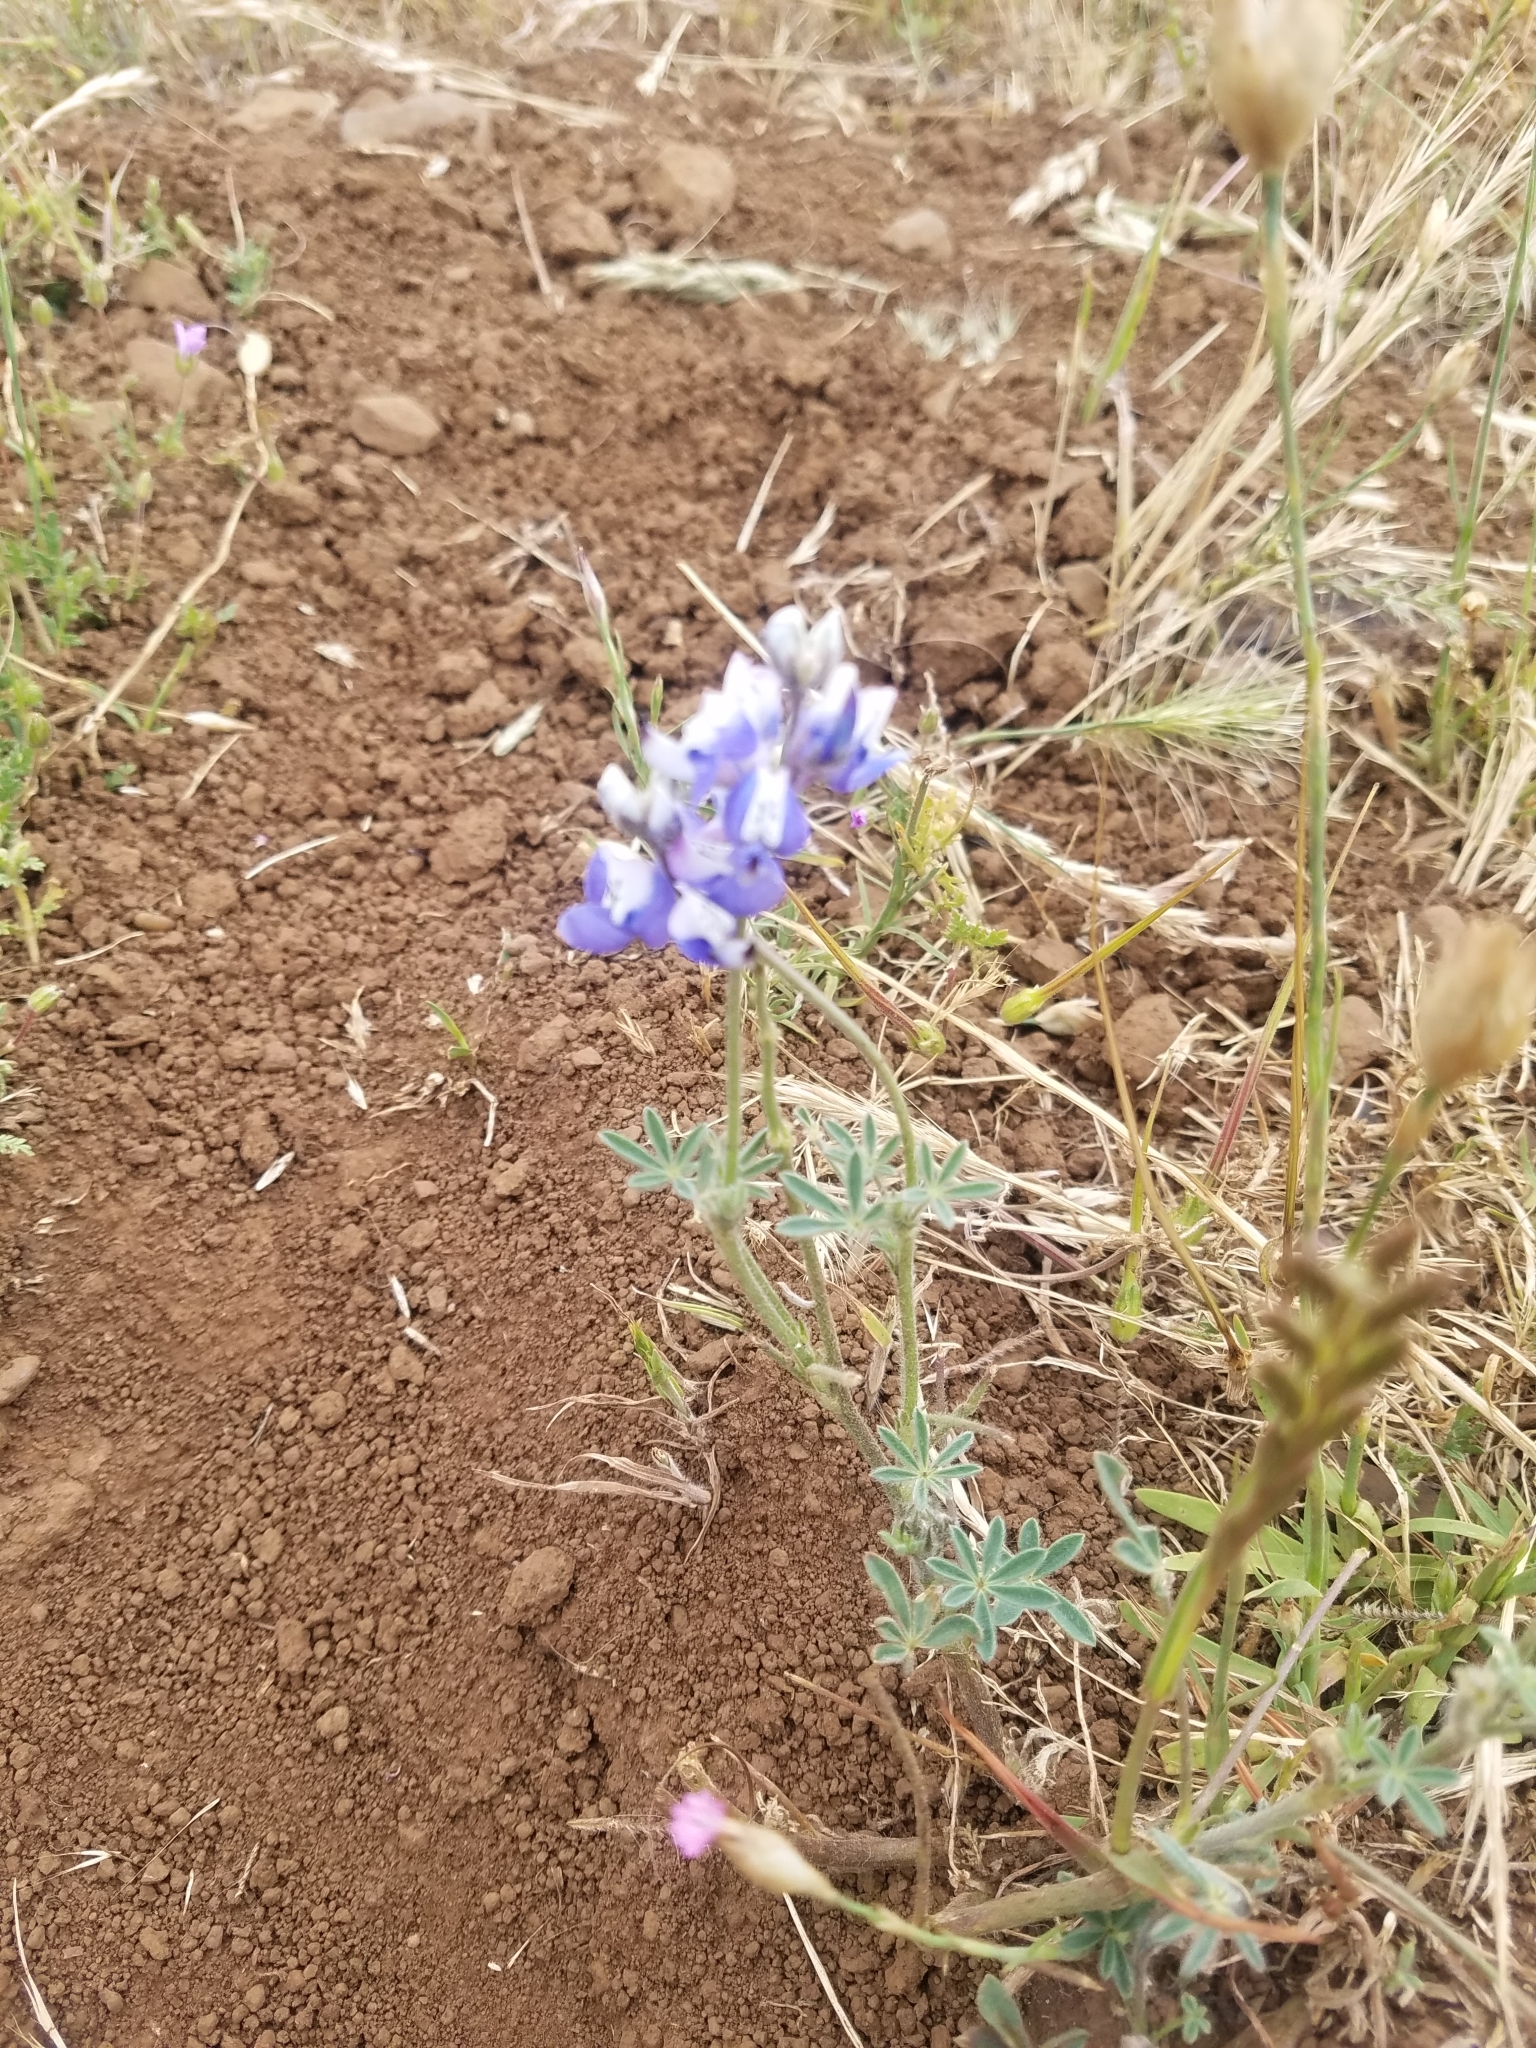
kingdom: Plantae
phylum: Tracheophyta
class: Magnoliopsida
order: Fabales
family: Fabaceae
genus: Lupinus
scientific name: Lupinus nanus
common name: Orean blue lupin
